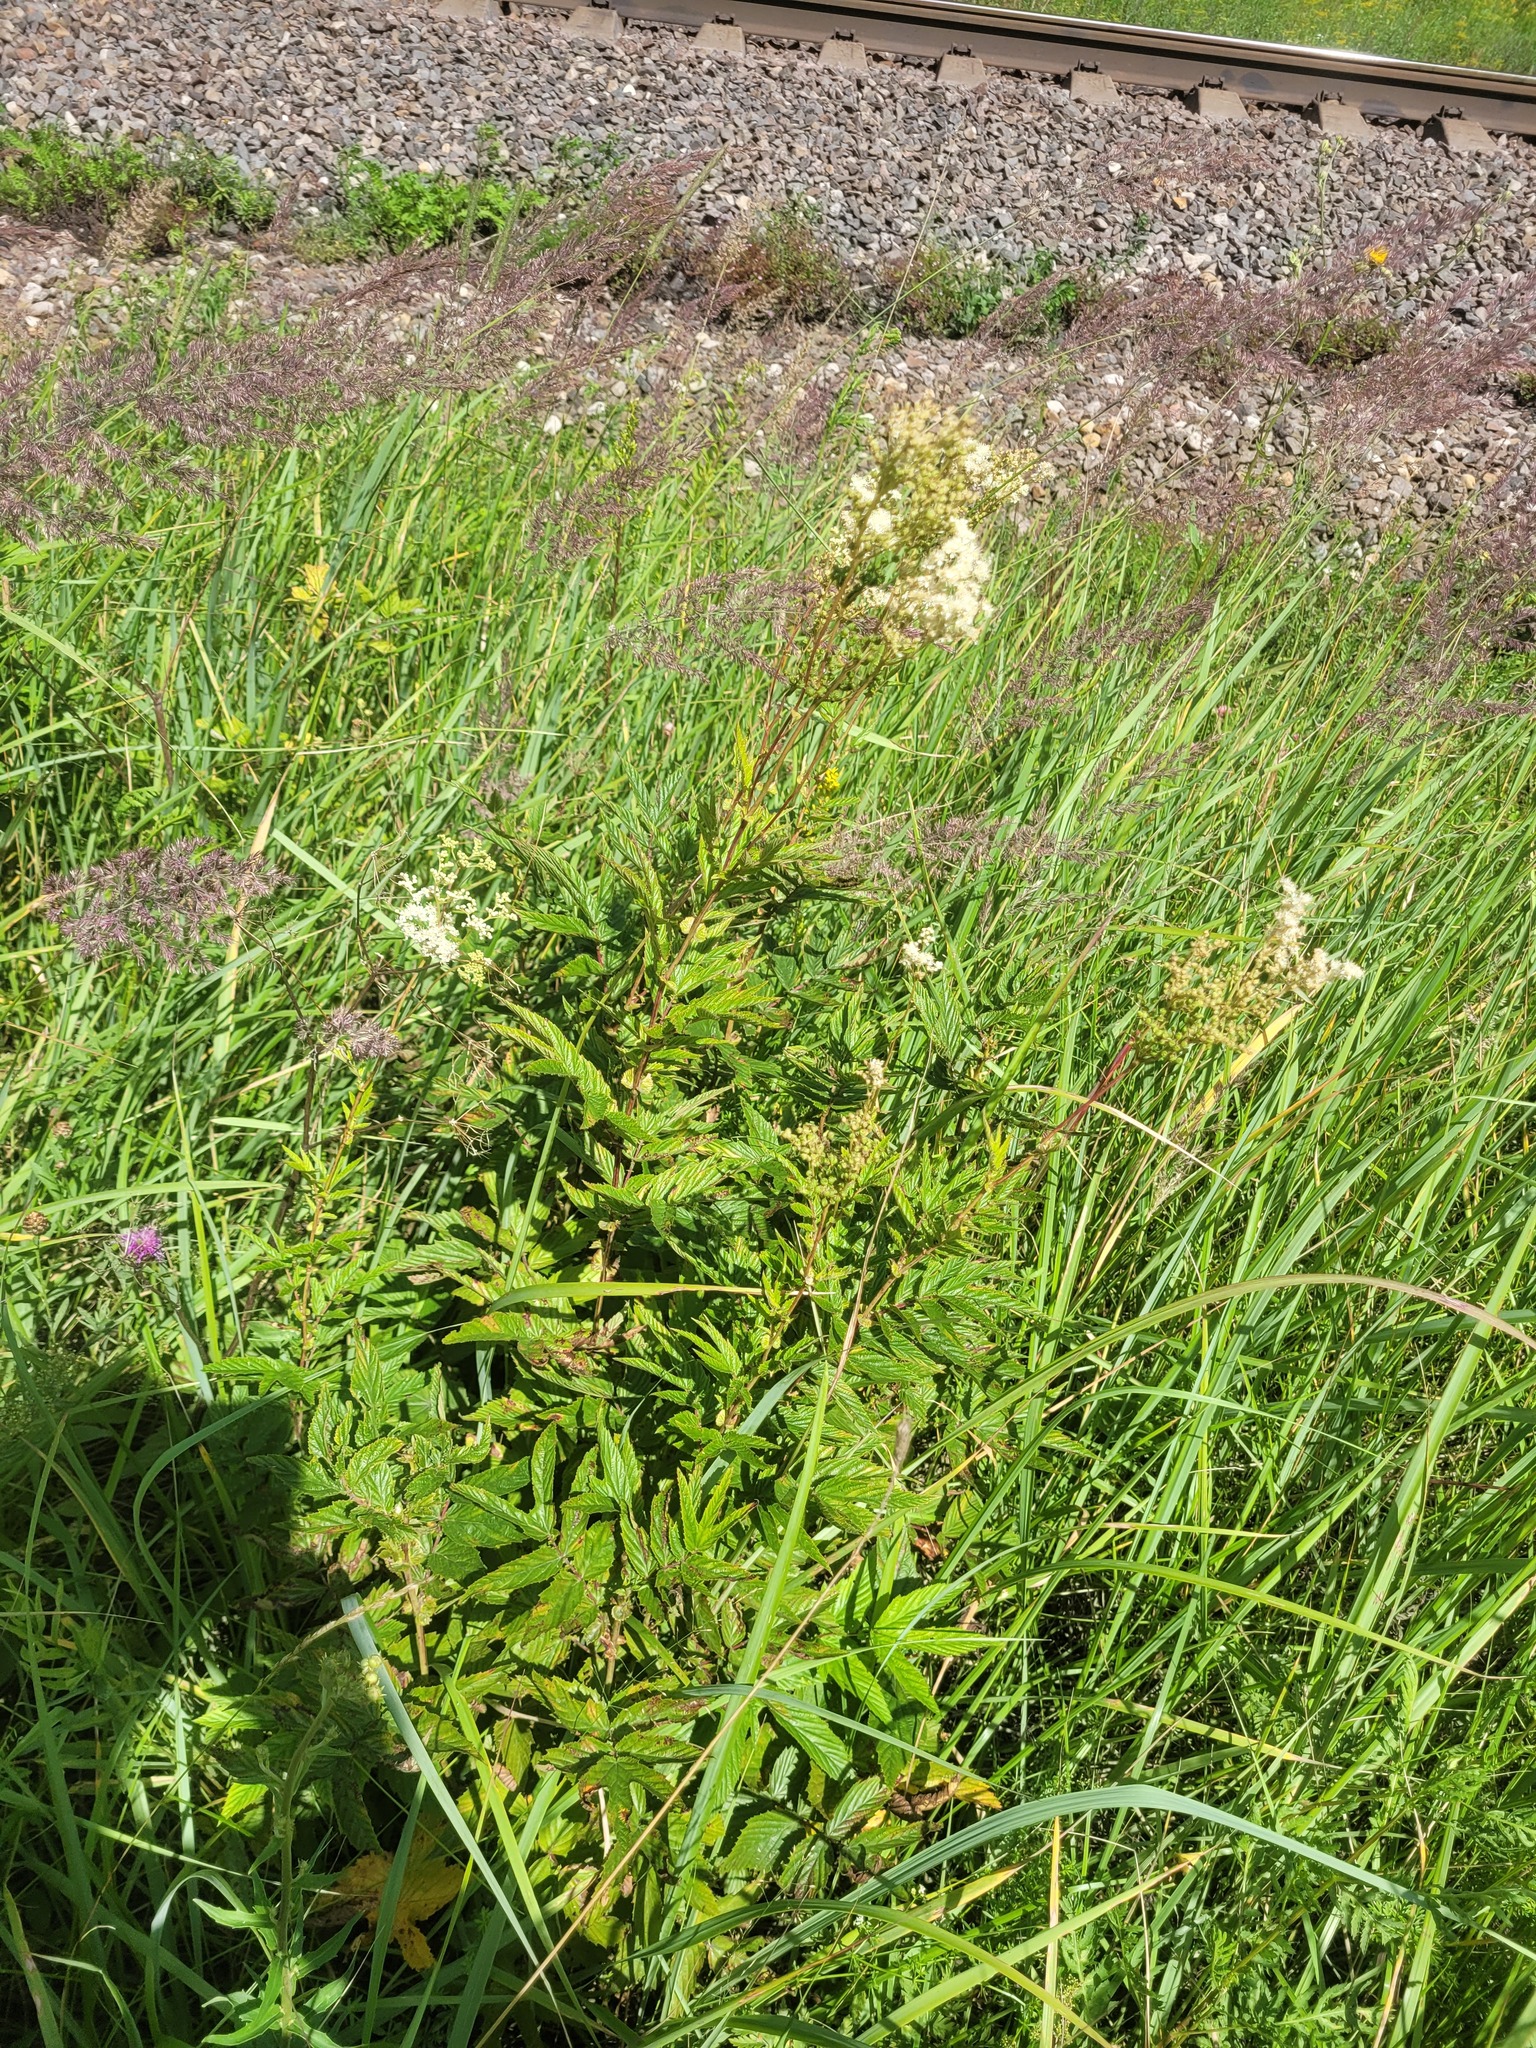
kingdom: Plantae
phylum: Tracheophyta
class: Magnoliopsida
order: Rosales
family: Rosaceae
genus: Filipendula
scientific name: Filipendula ulmaria
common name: Meadowsweet
